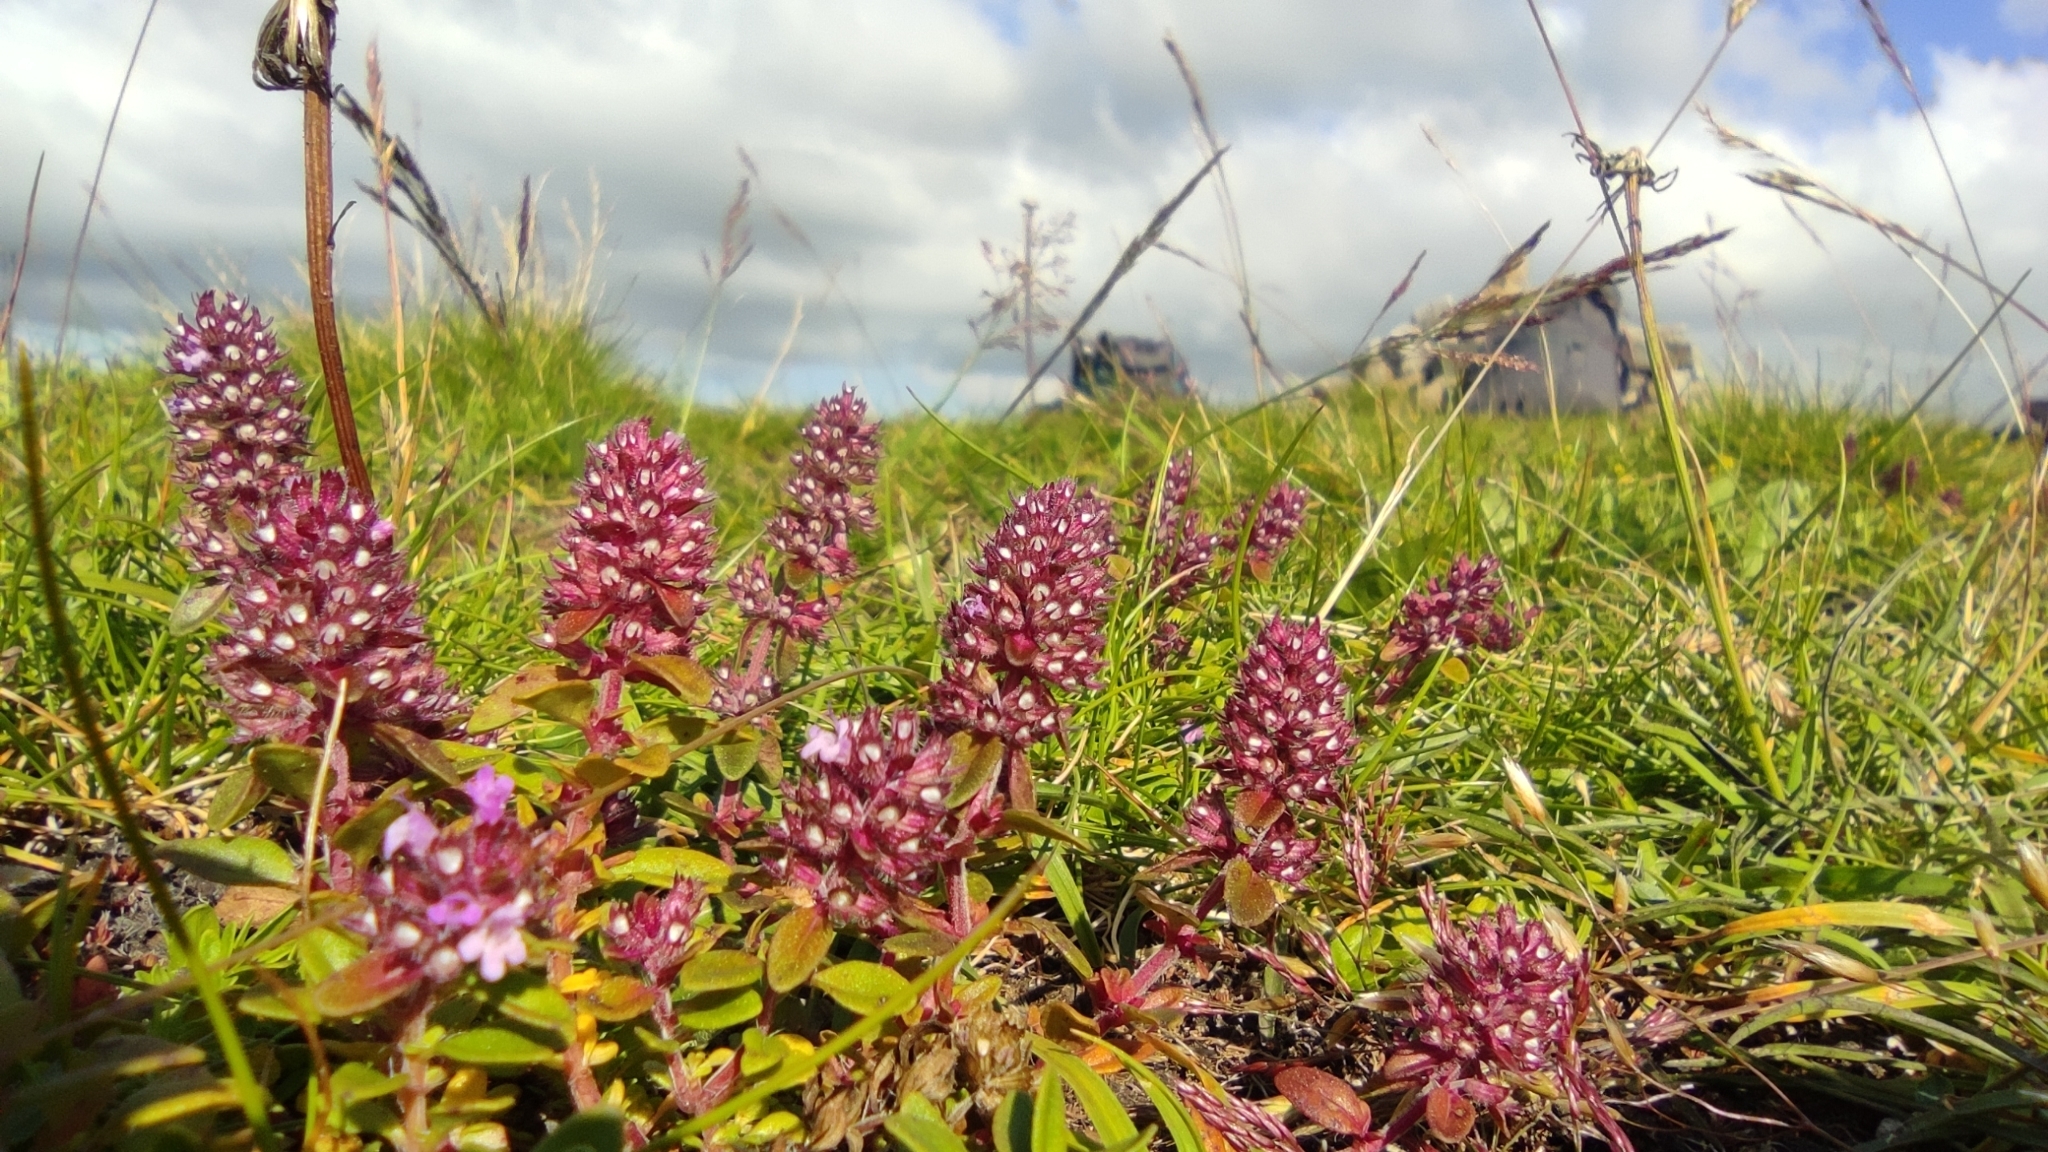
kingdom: Plantae
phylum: Tracheophyta
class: Magnoliopsida
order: Lamiales
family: Lamiaceae
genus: Thymus
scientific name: Thymus pulegioides
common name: Large thyme
